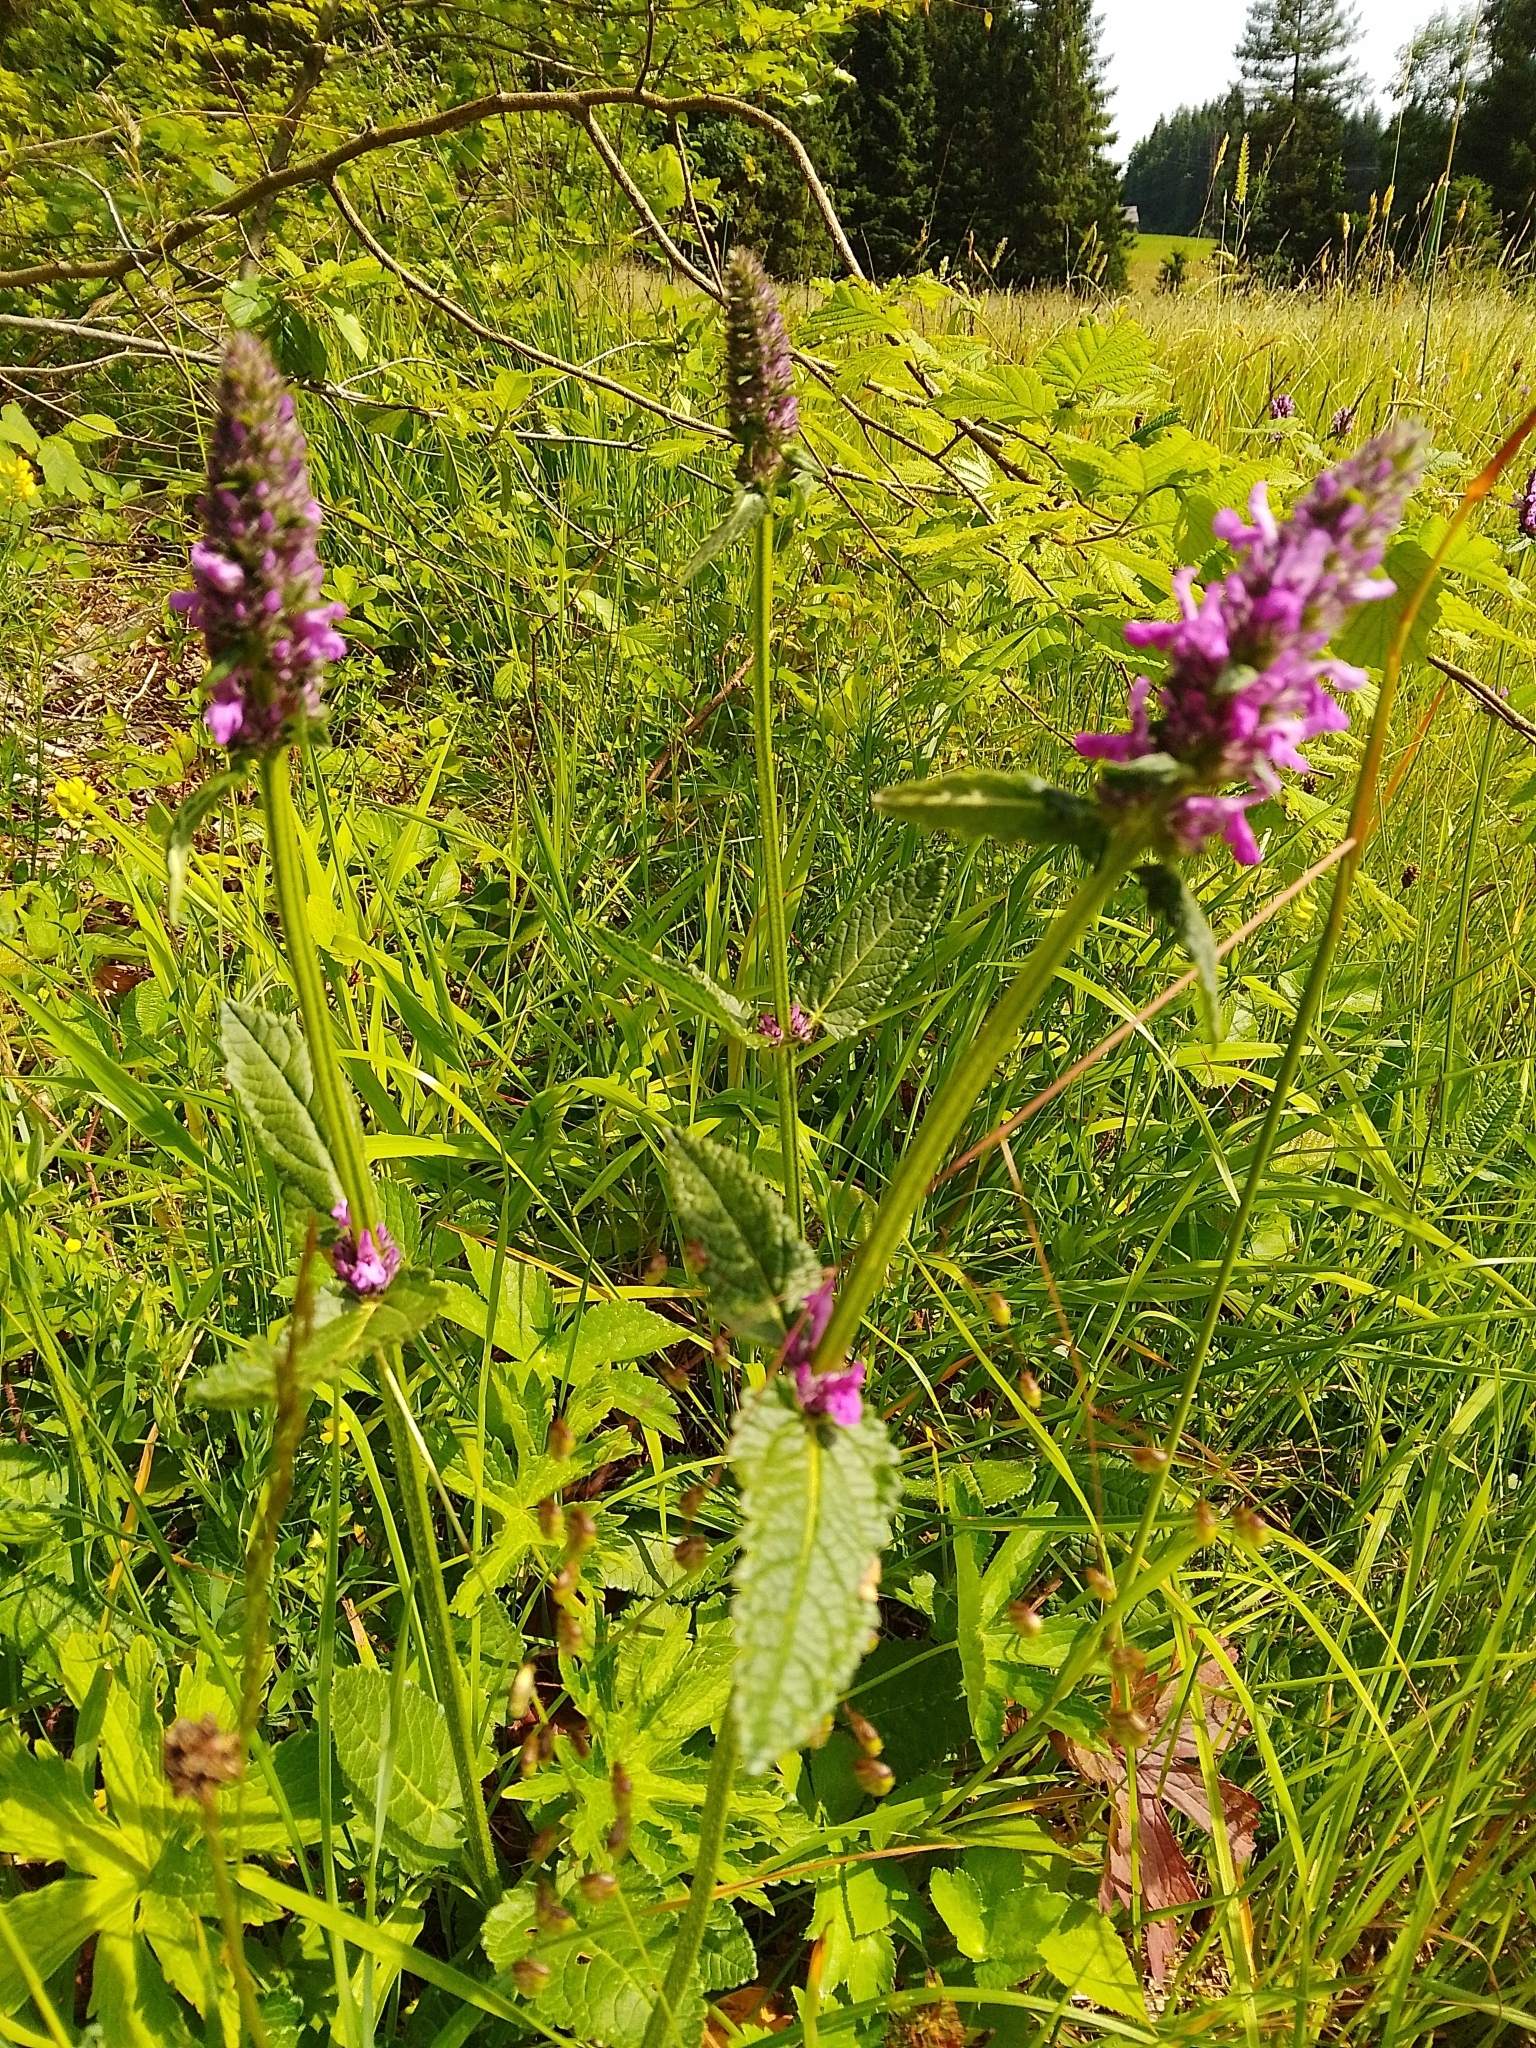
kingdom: Plantae
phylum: Tracheophyta
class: Magnoliopsida
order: Lamiales
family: Lamiaceae
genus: Betonica
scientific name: Betonica officinalis
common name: Bishop's-wort
